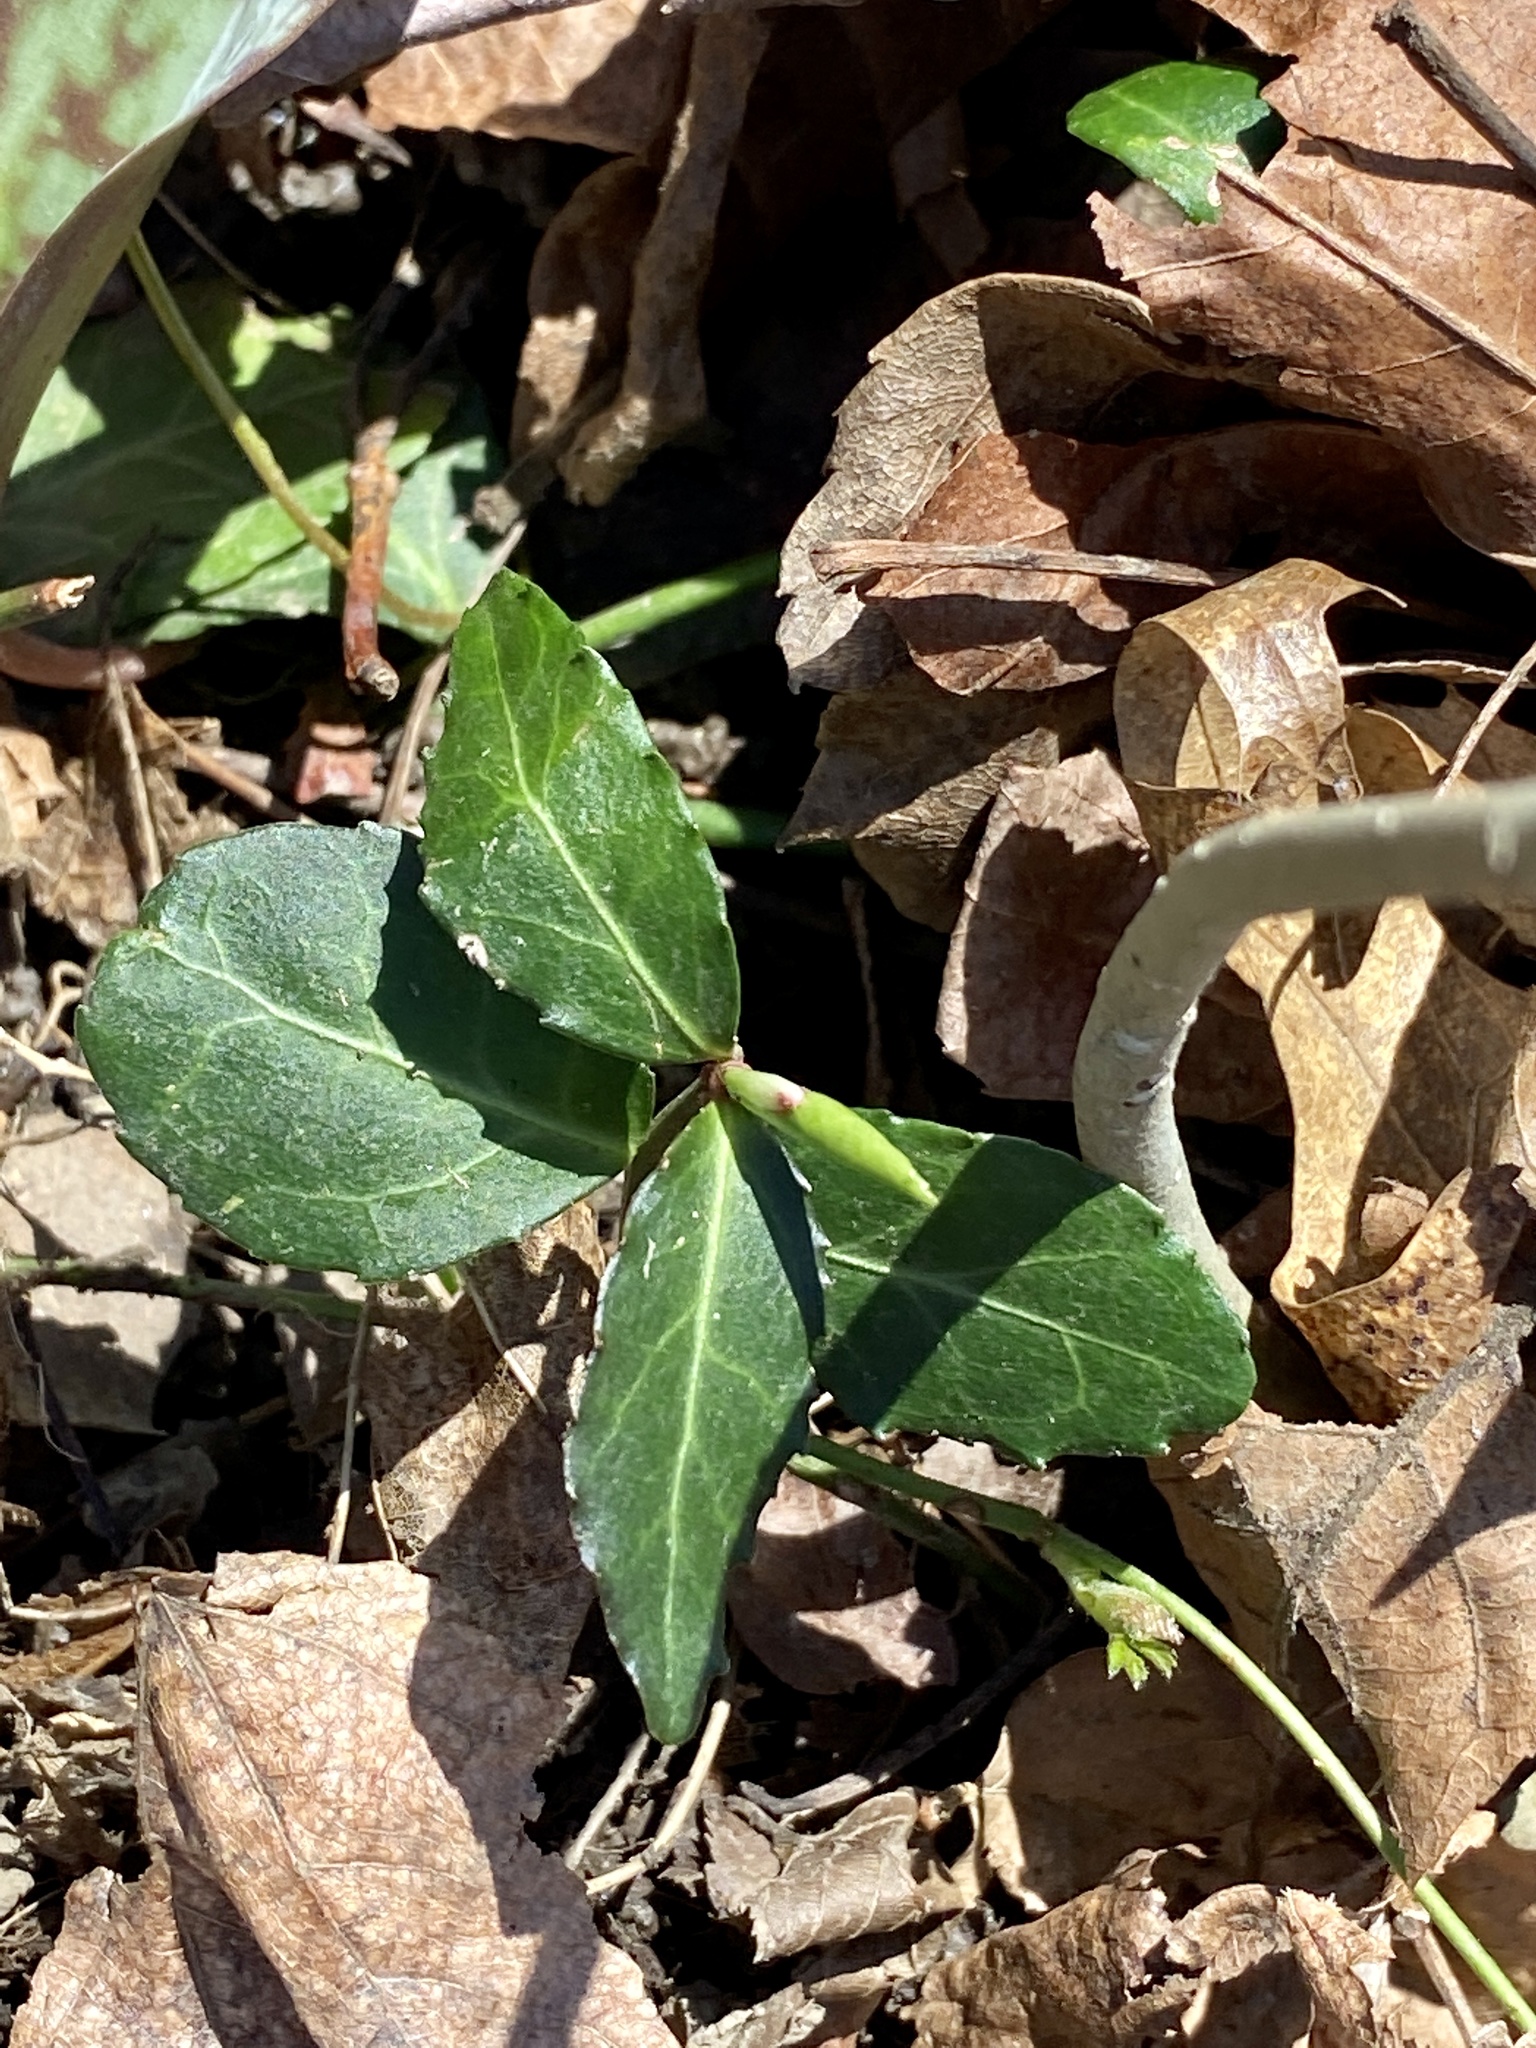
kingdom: Plantae
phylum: Tracheophyta
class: Magnoliopsida
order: Celastrales
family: Celastraceae
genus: Euonymus
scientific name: Euonymus fortunei
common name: Climbing euonymus
